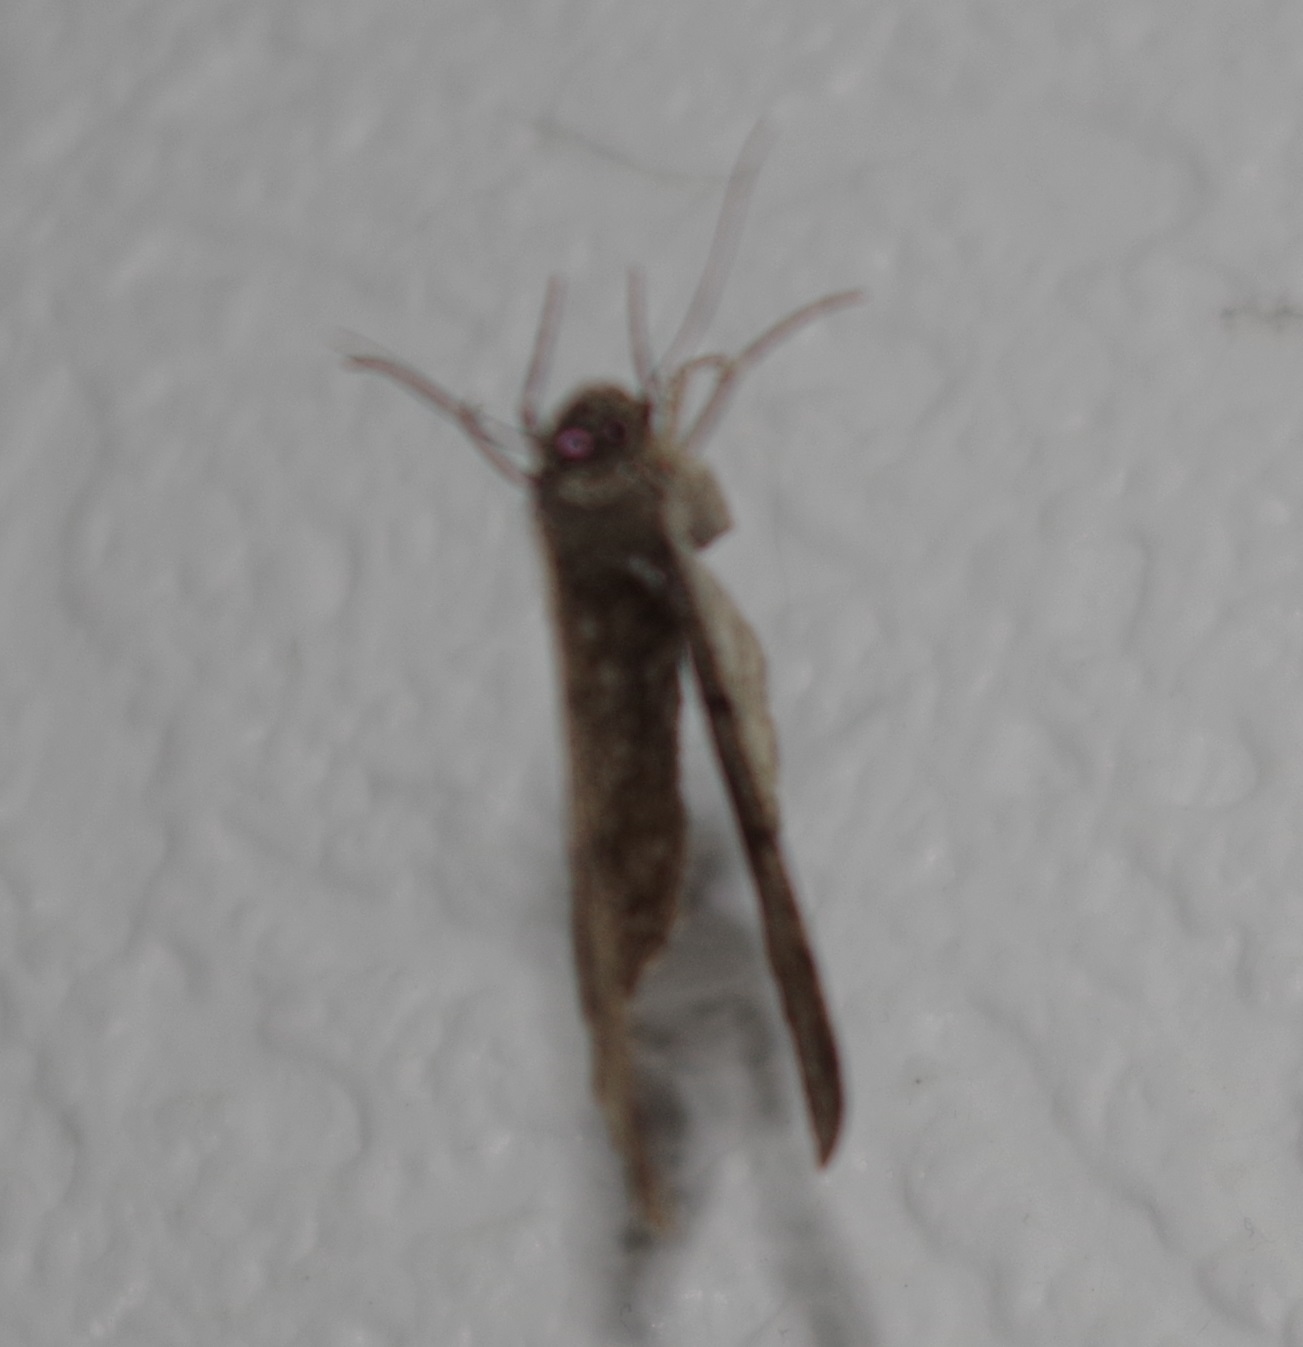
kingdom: Animalia
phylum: Arthropoda
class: Insecta
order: Lepidoptera
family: Geometridae
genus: Peribatodes
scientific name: Peribatodes rhomboidaria
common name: Willow beauty
